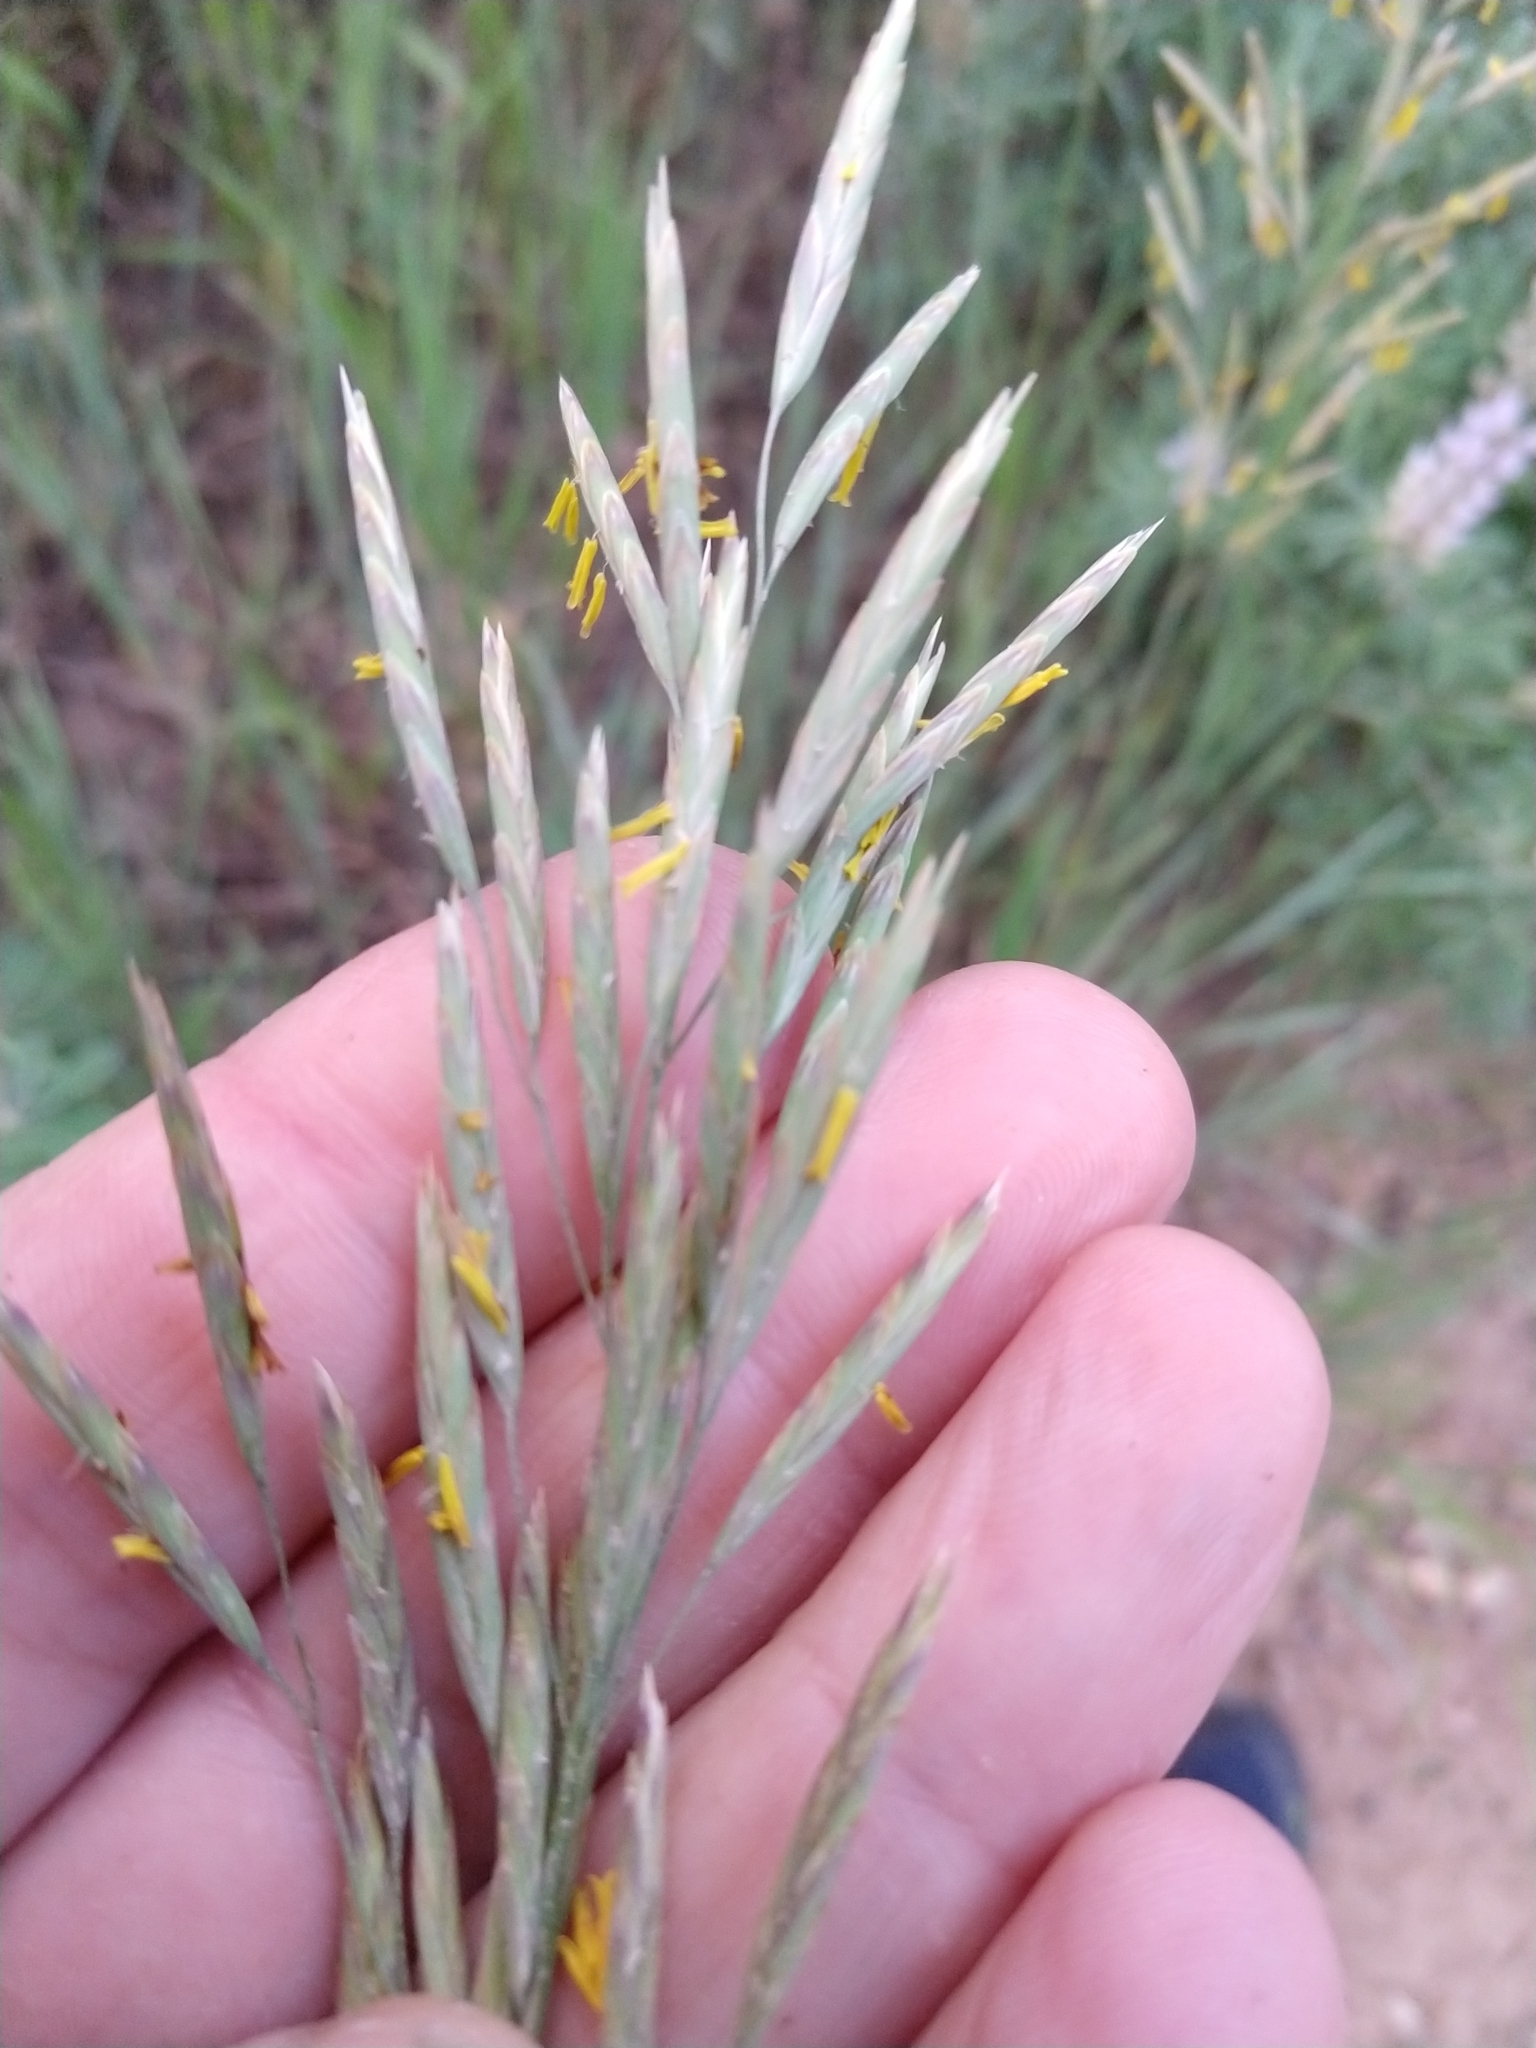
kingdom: Plantae
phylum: Tracheophyta
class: Liliopsida
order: Poales
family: Poaceae
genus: Bromus
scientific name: Bromus inermis
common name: Smooth brome
